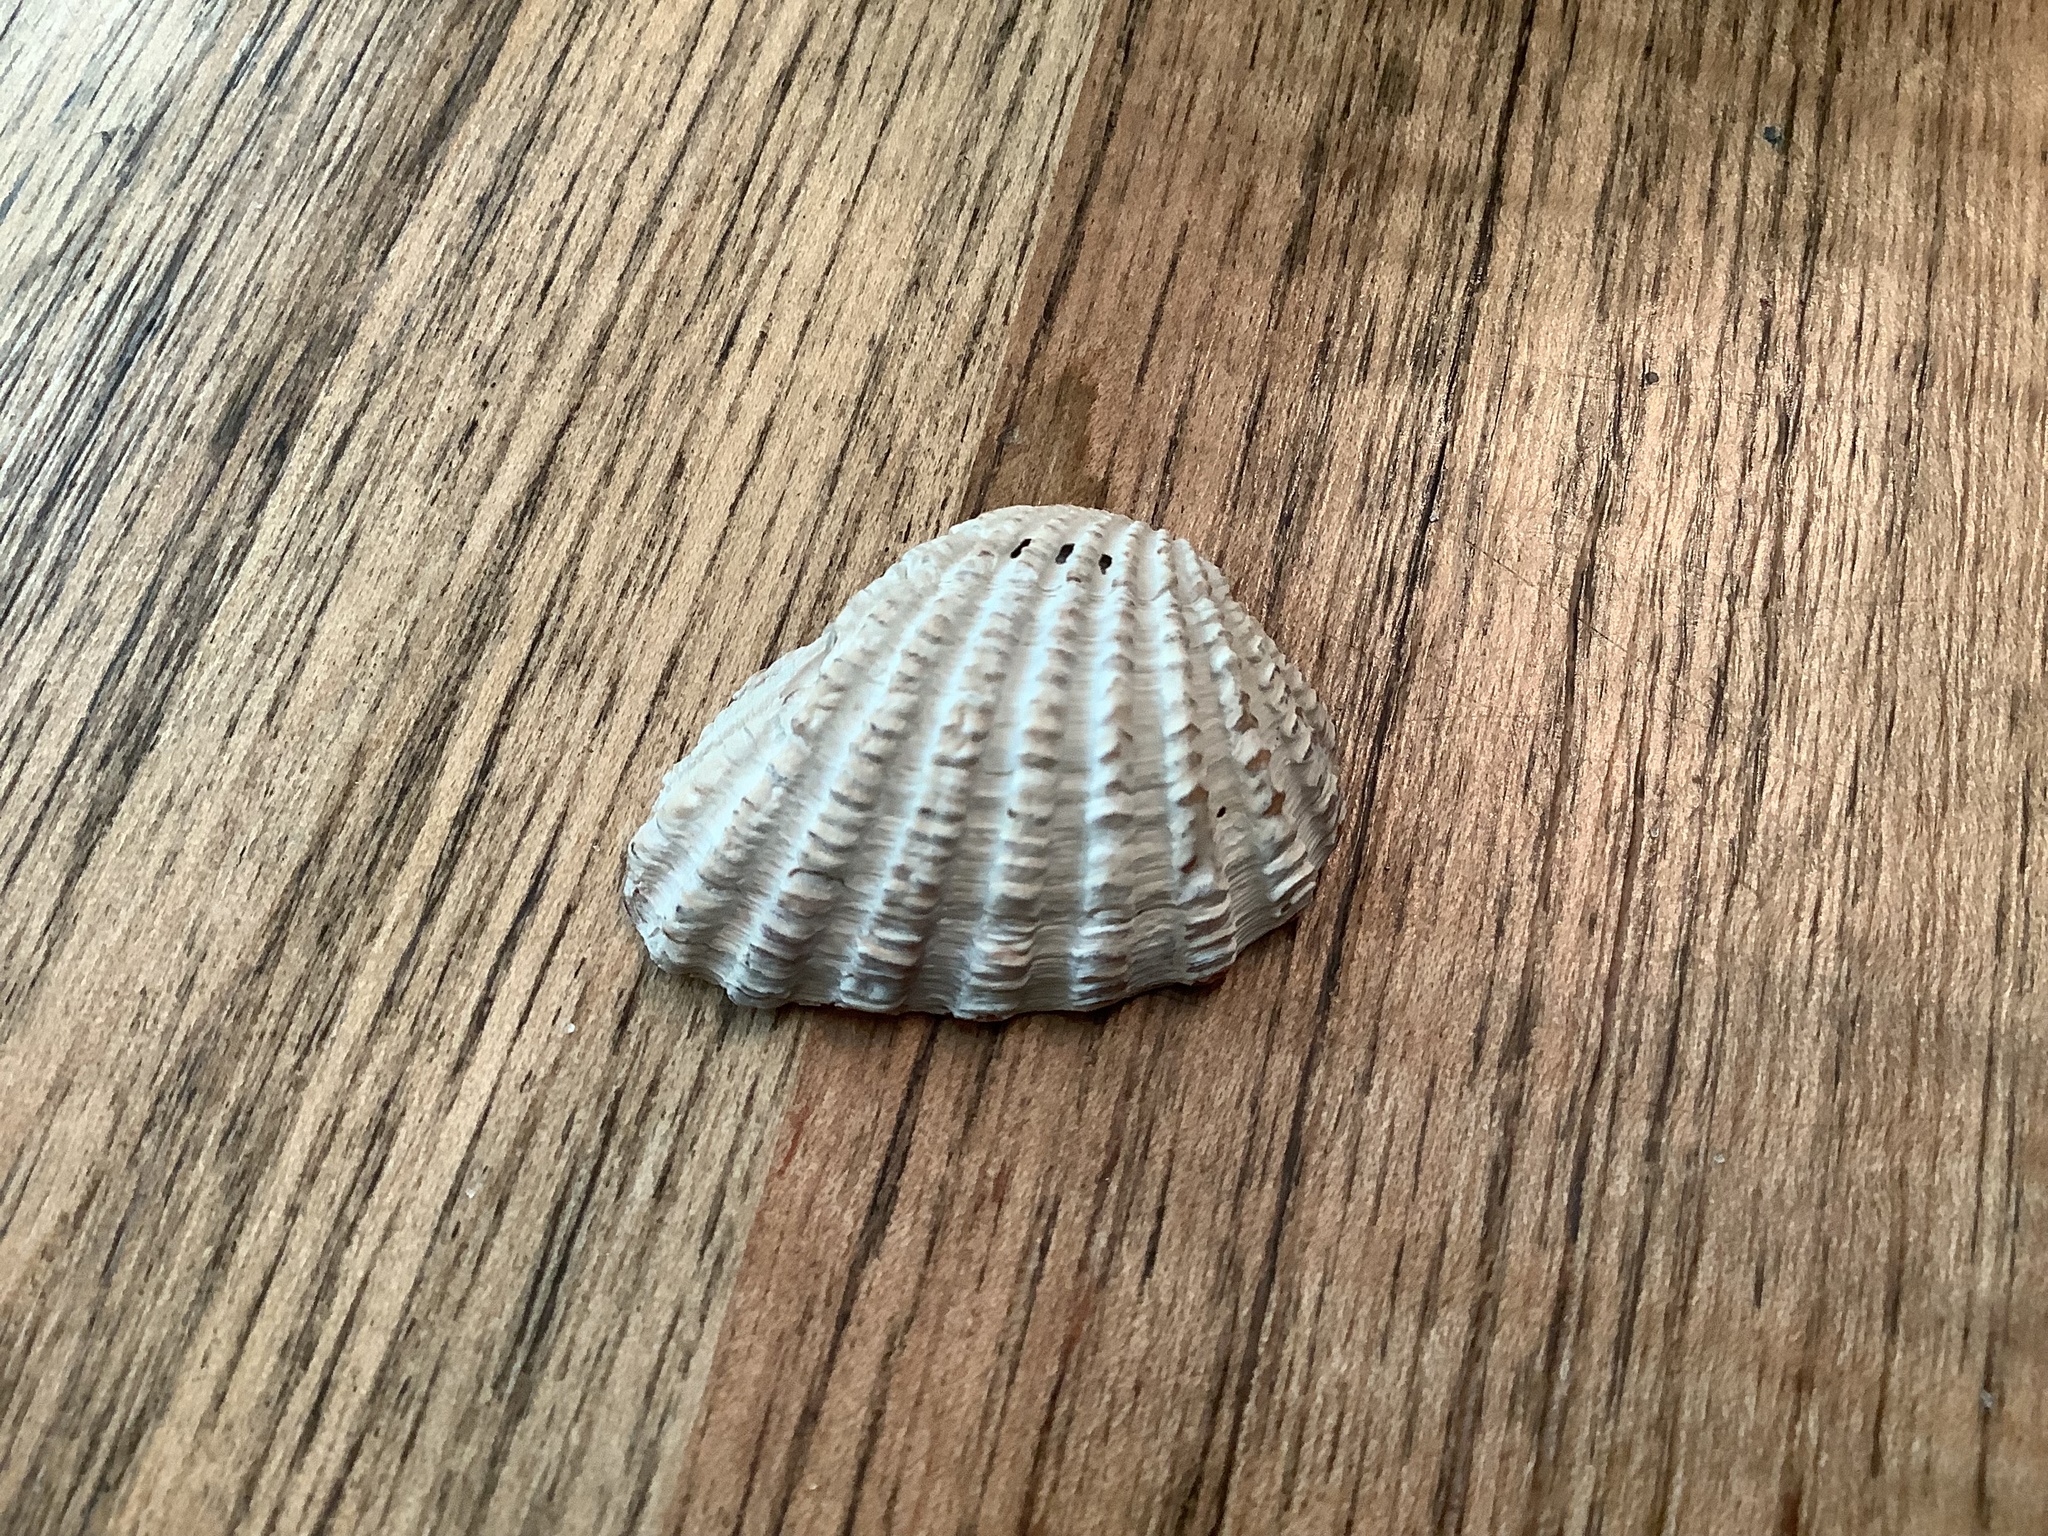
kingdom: Animalia
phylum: Mollusca
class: Bivalvia
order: Carditida
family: Carditidae
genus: Cardites
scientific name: Cardites floridanus
